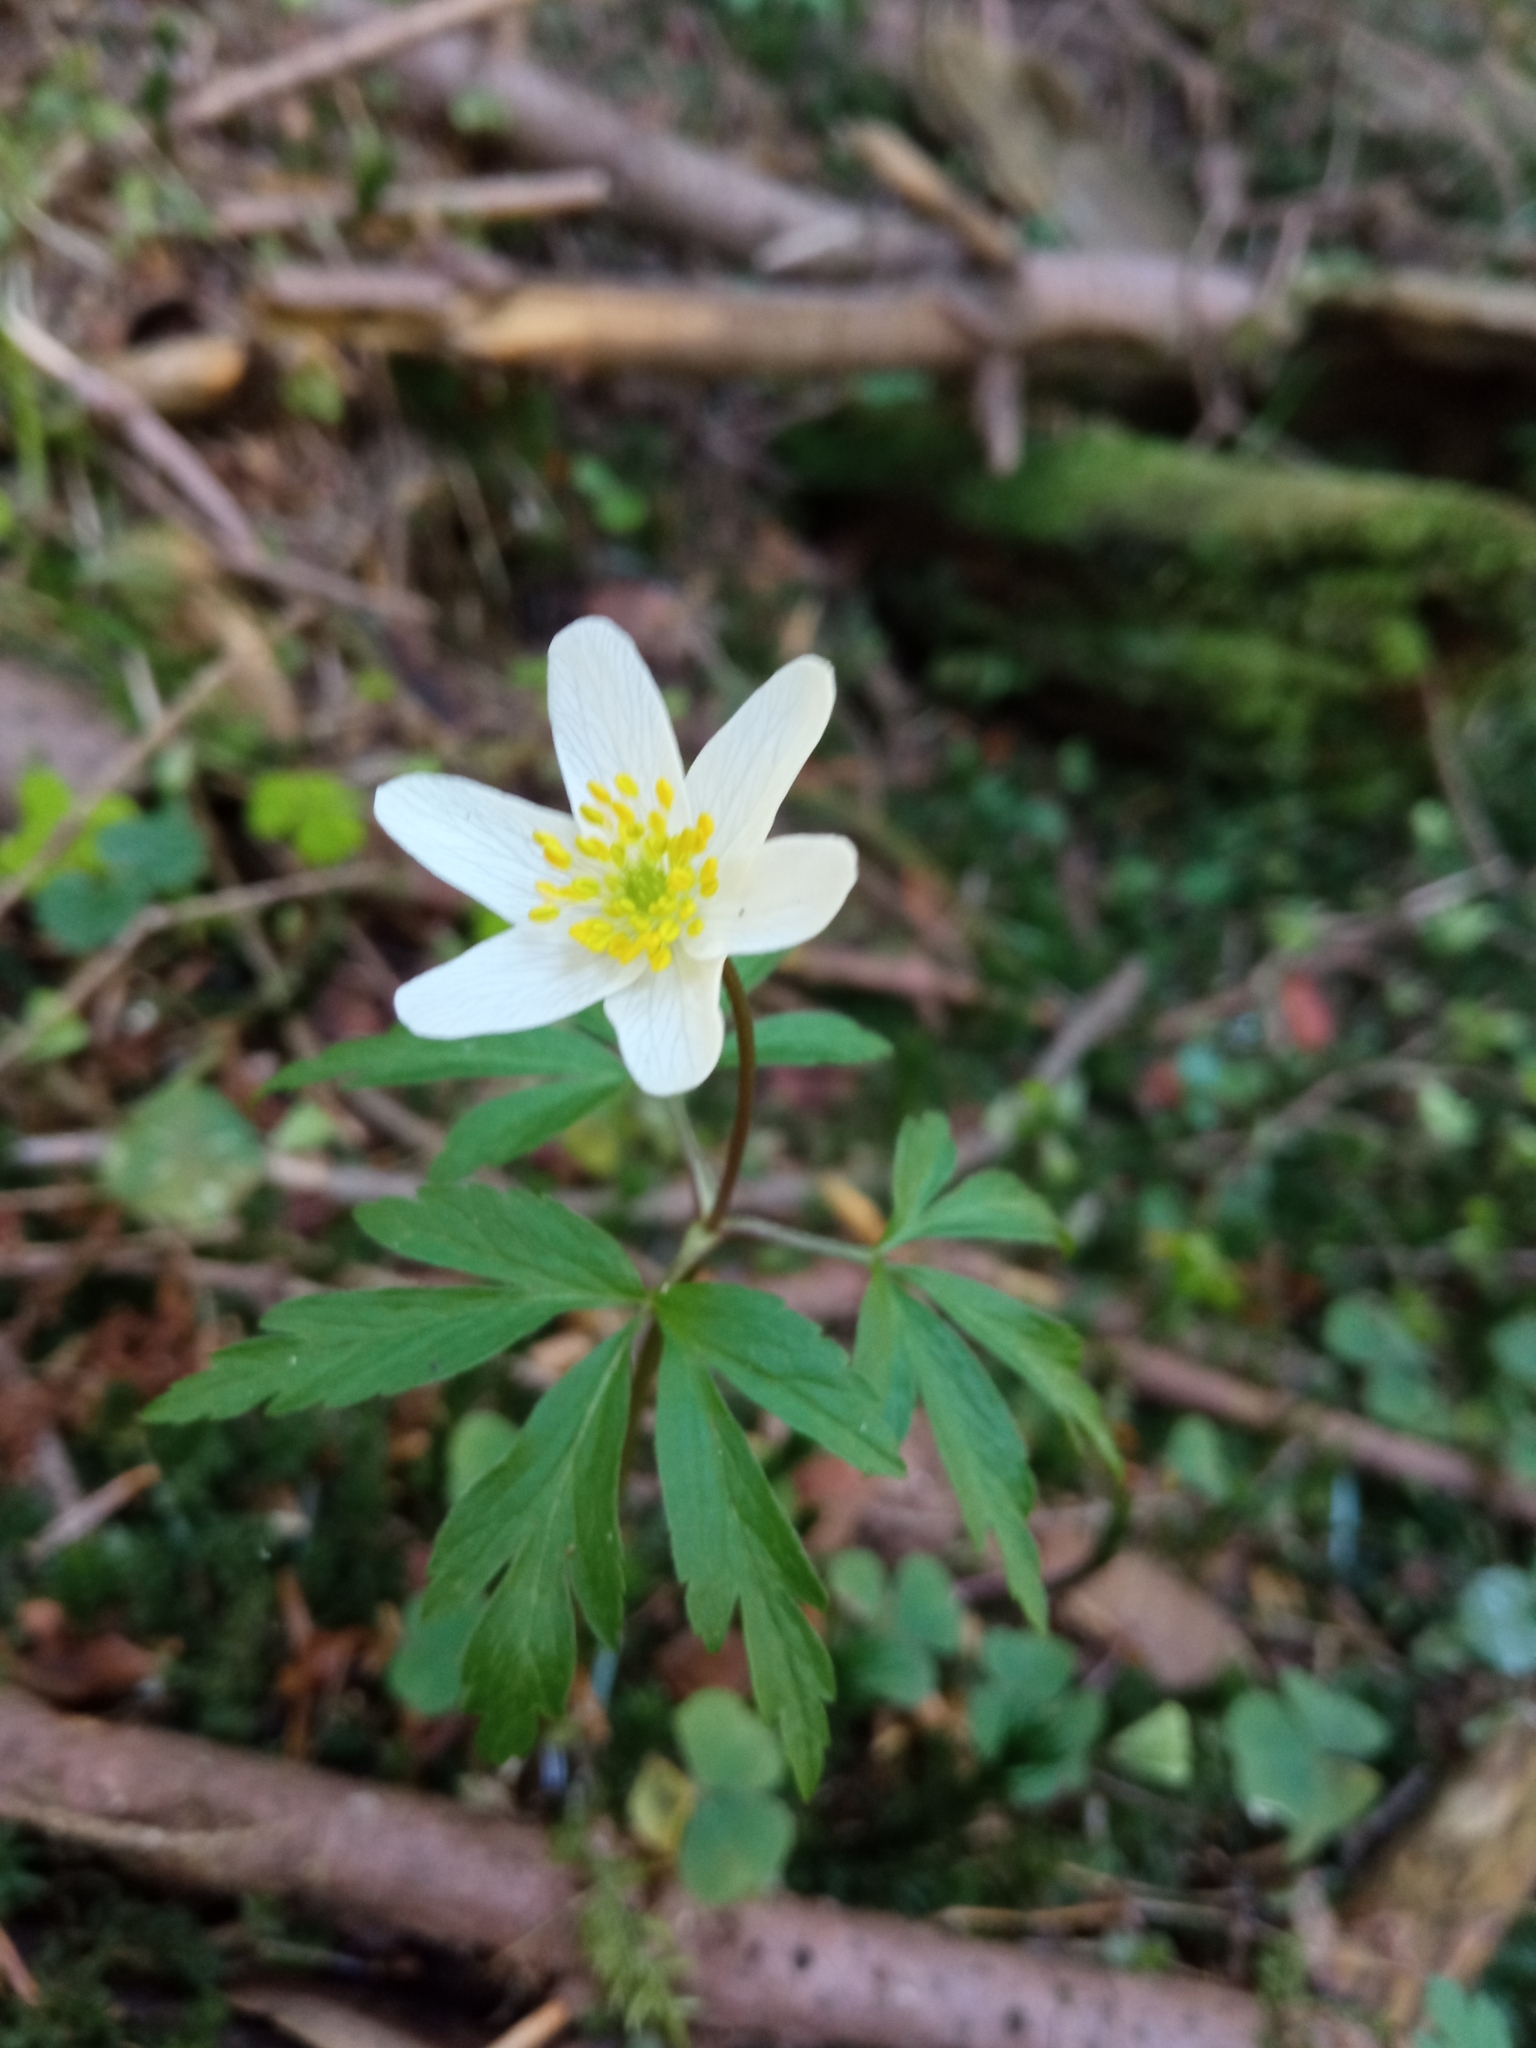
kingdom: Plantae
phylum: Tracheophyta
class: Magnoliopsida
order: Ranunculales
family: Ranunculaceae
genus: Anemone
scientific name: Anemone nemorosa
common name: Wood anemone
